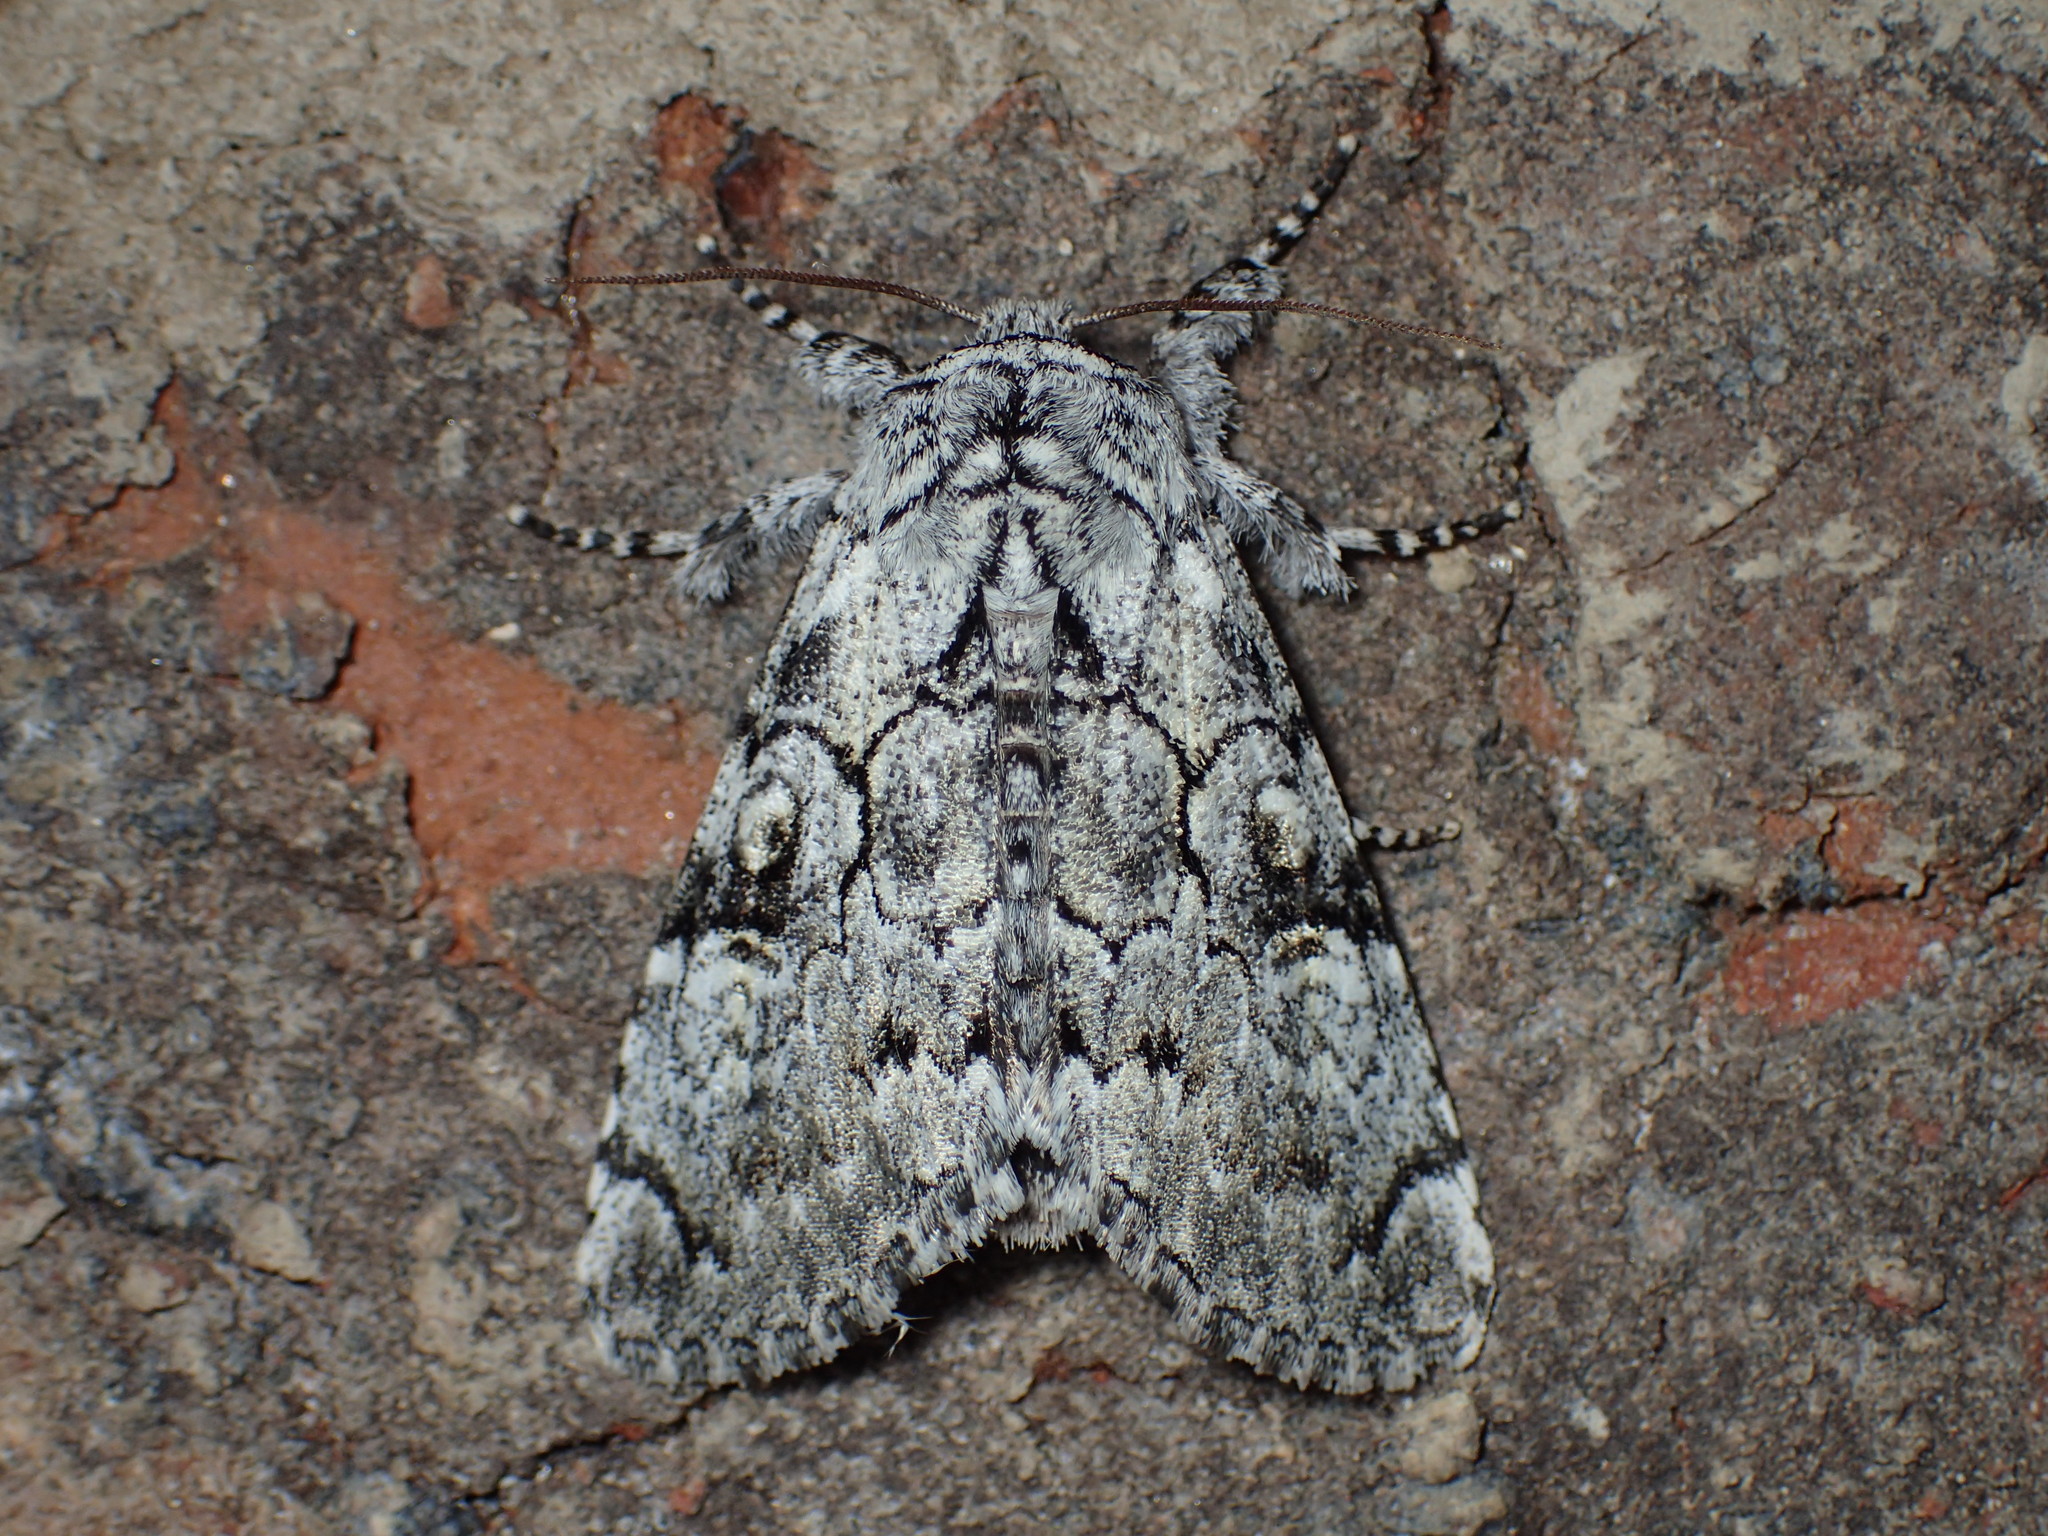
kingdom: Animalia
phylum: Arthropoda
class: Insecta
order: Lepidoptera
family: Noctuidae
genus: Charadra
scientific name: Charadra deridens
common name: Marbled tuffet
